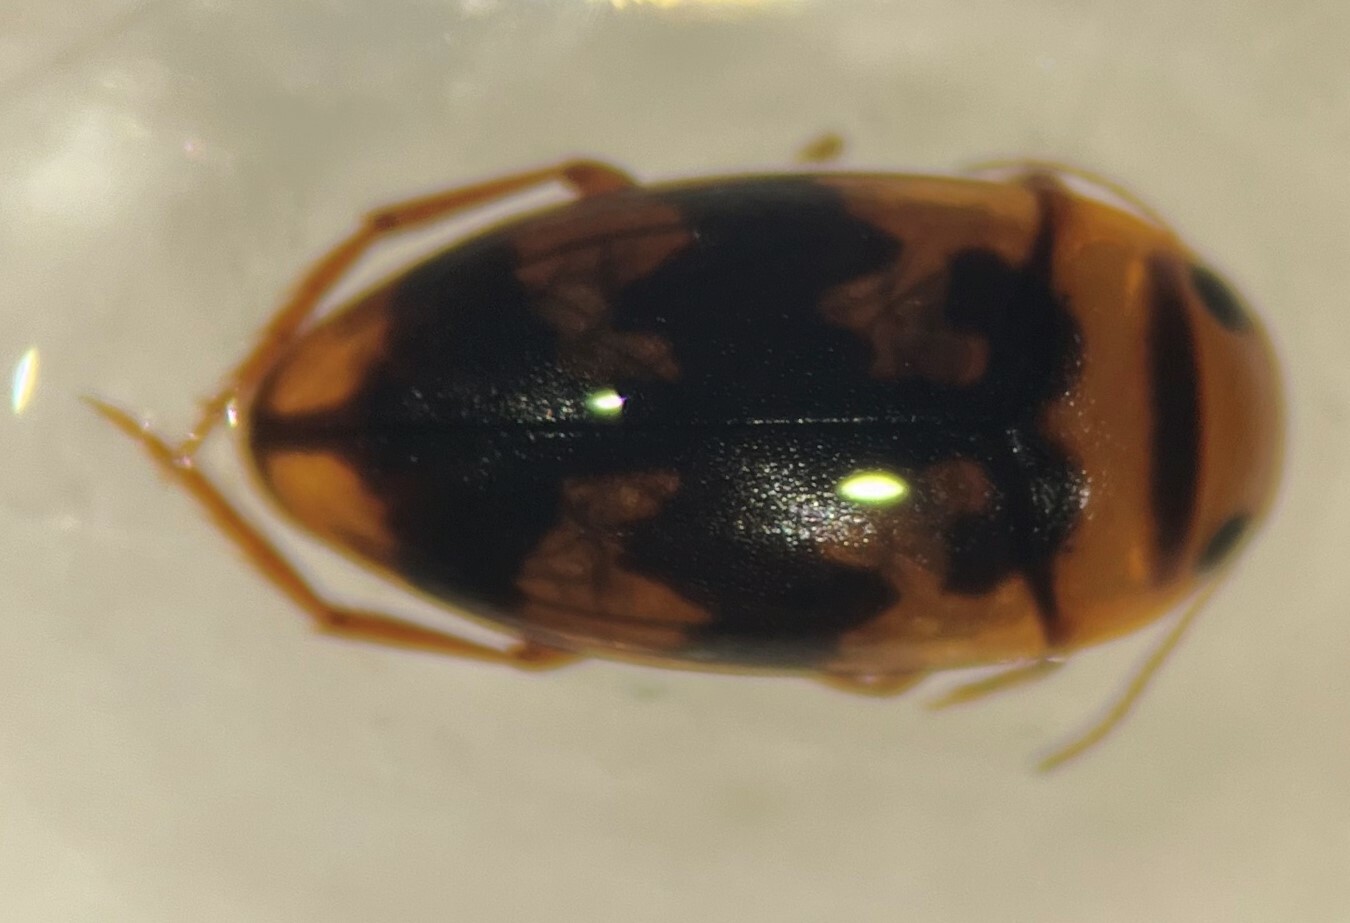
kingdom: Animalia
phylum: Arthropoda
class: Insecta
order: Coleoptera
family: Dytiscidae
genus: Heterosternuta
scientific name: Heterosternuta pulchra
